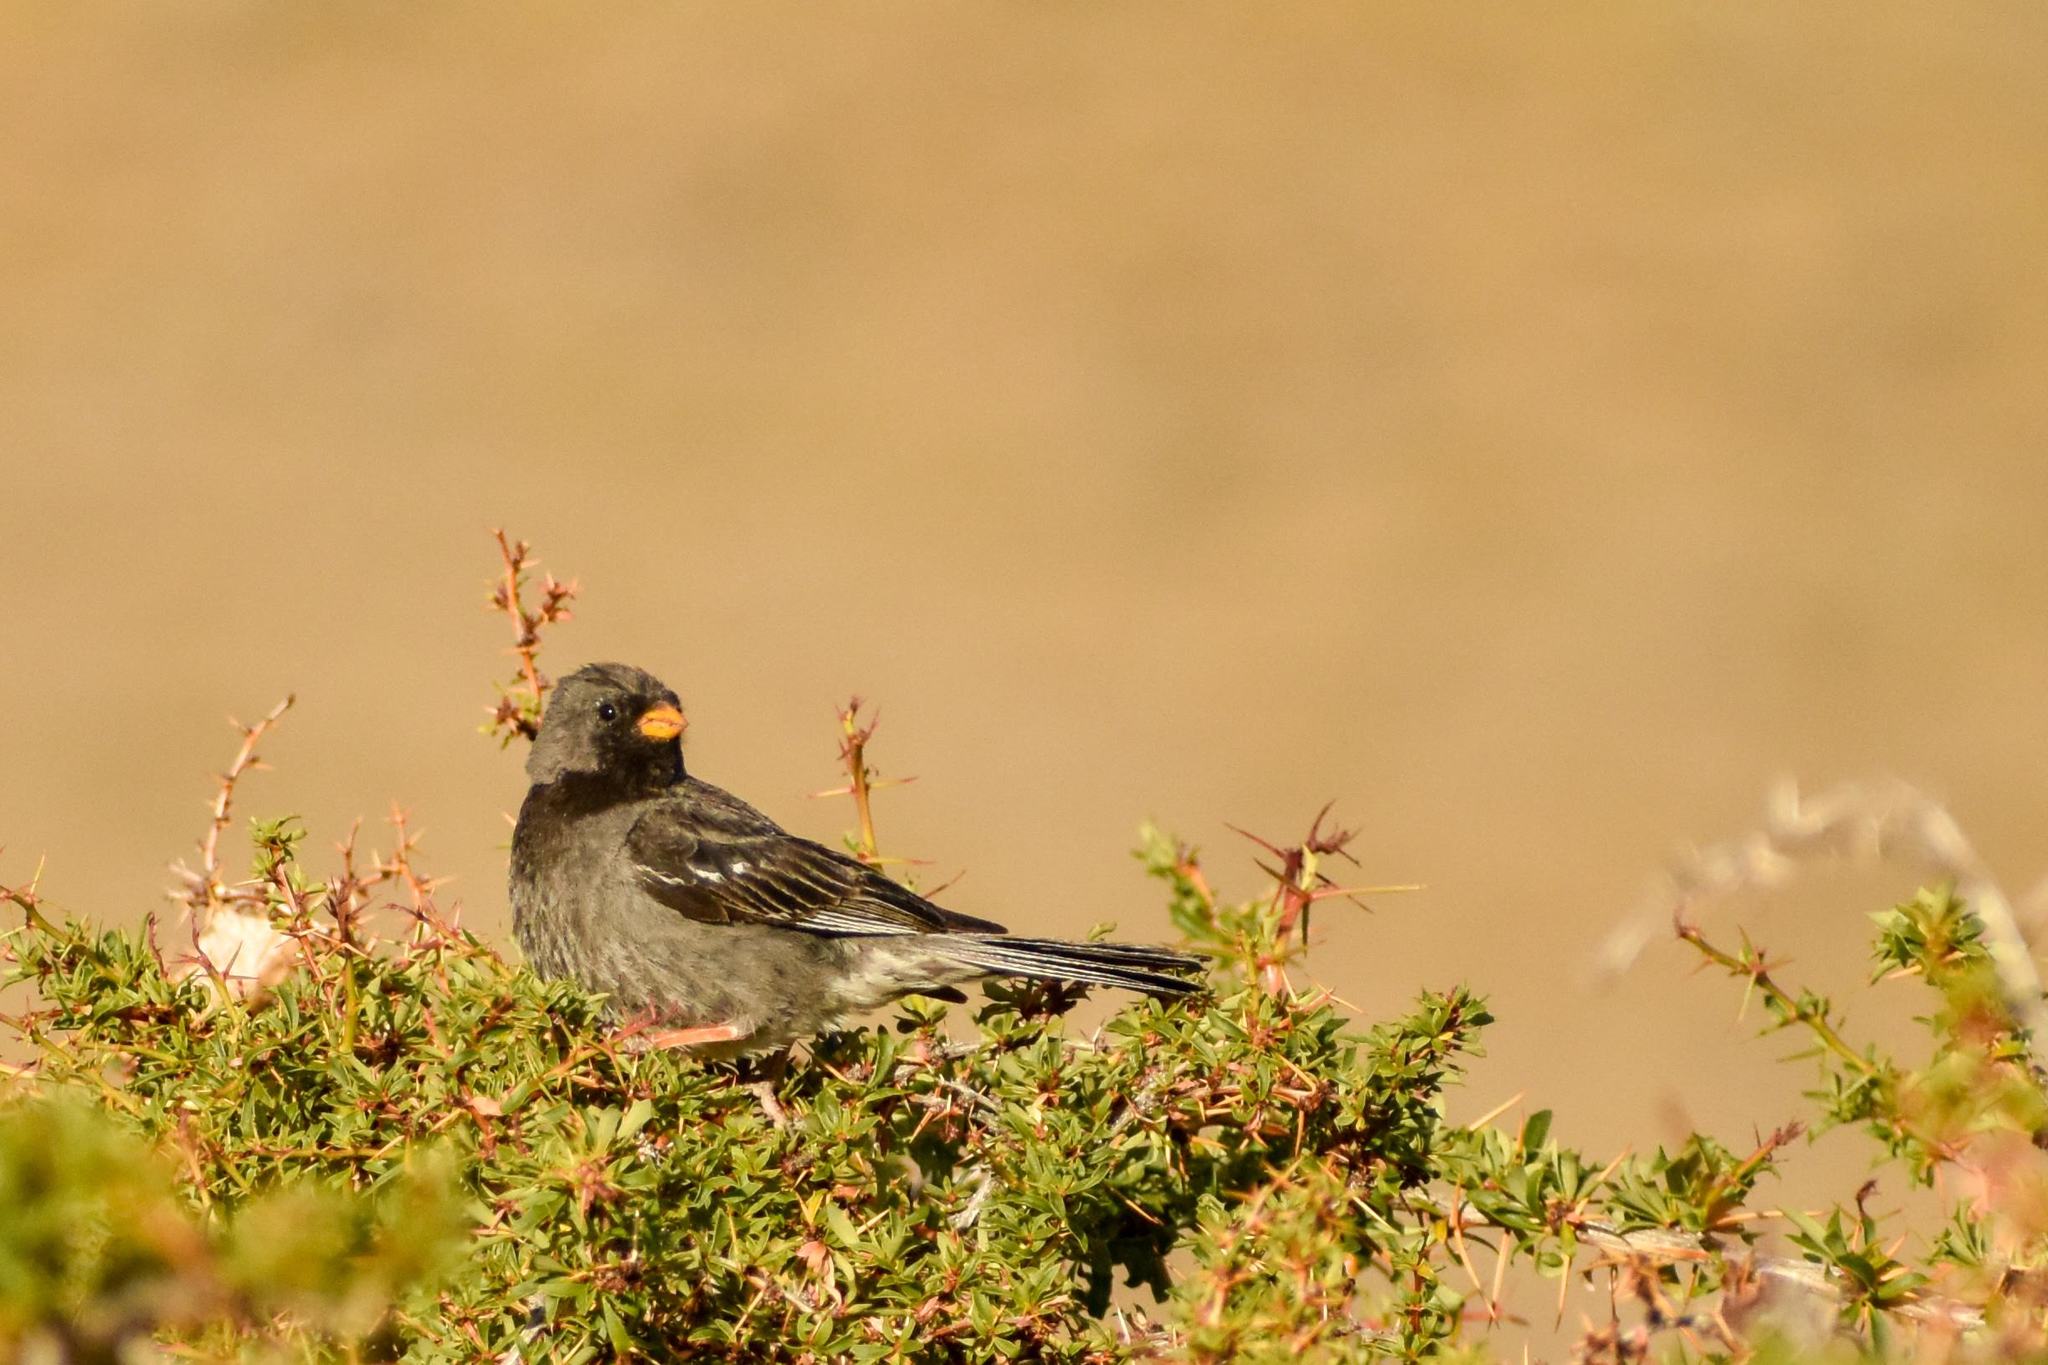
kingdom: Animalia
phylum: Chordata
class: Aves
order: Passeriformes
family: Thraupidae
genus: Rhopospina
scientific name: Rhopospina fruticeti
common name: Mourning sierra finch
